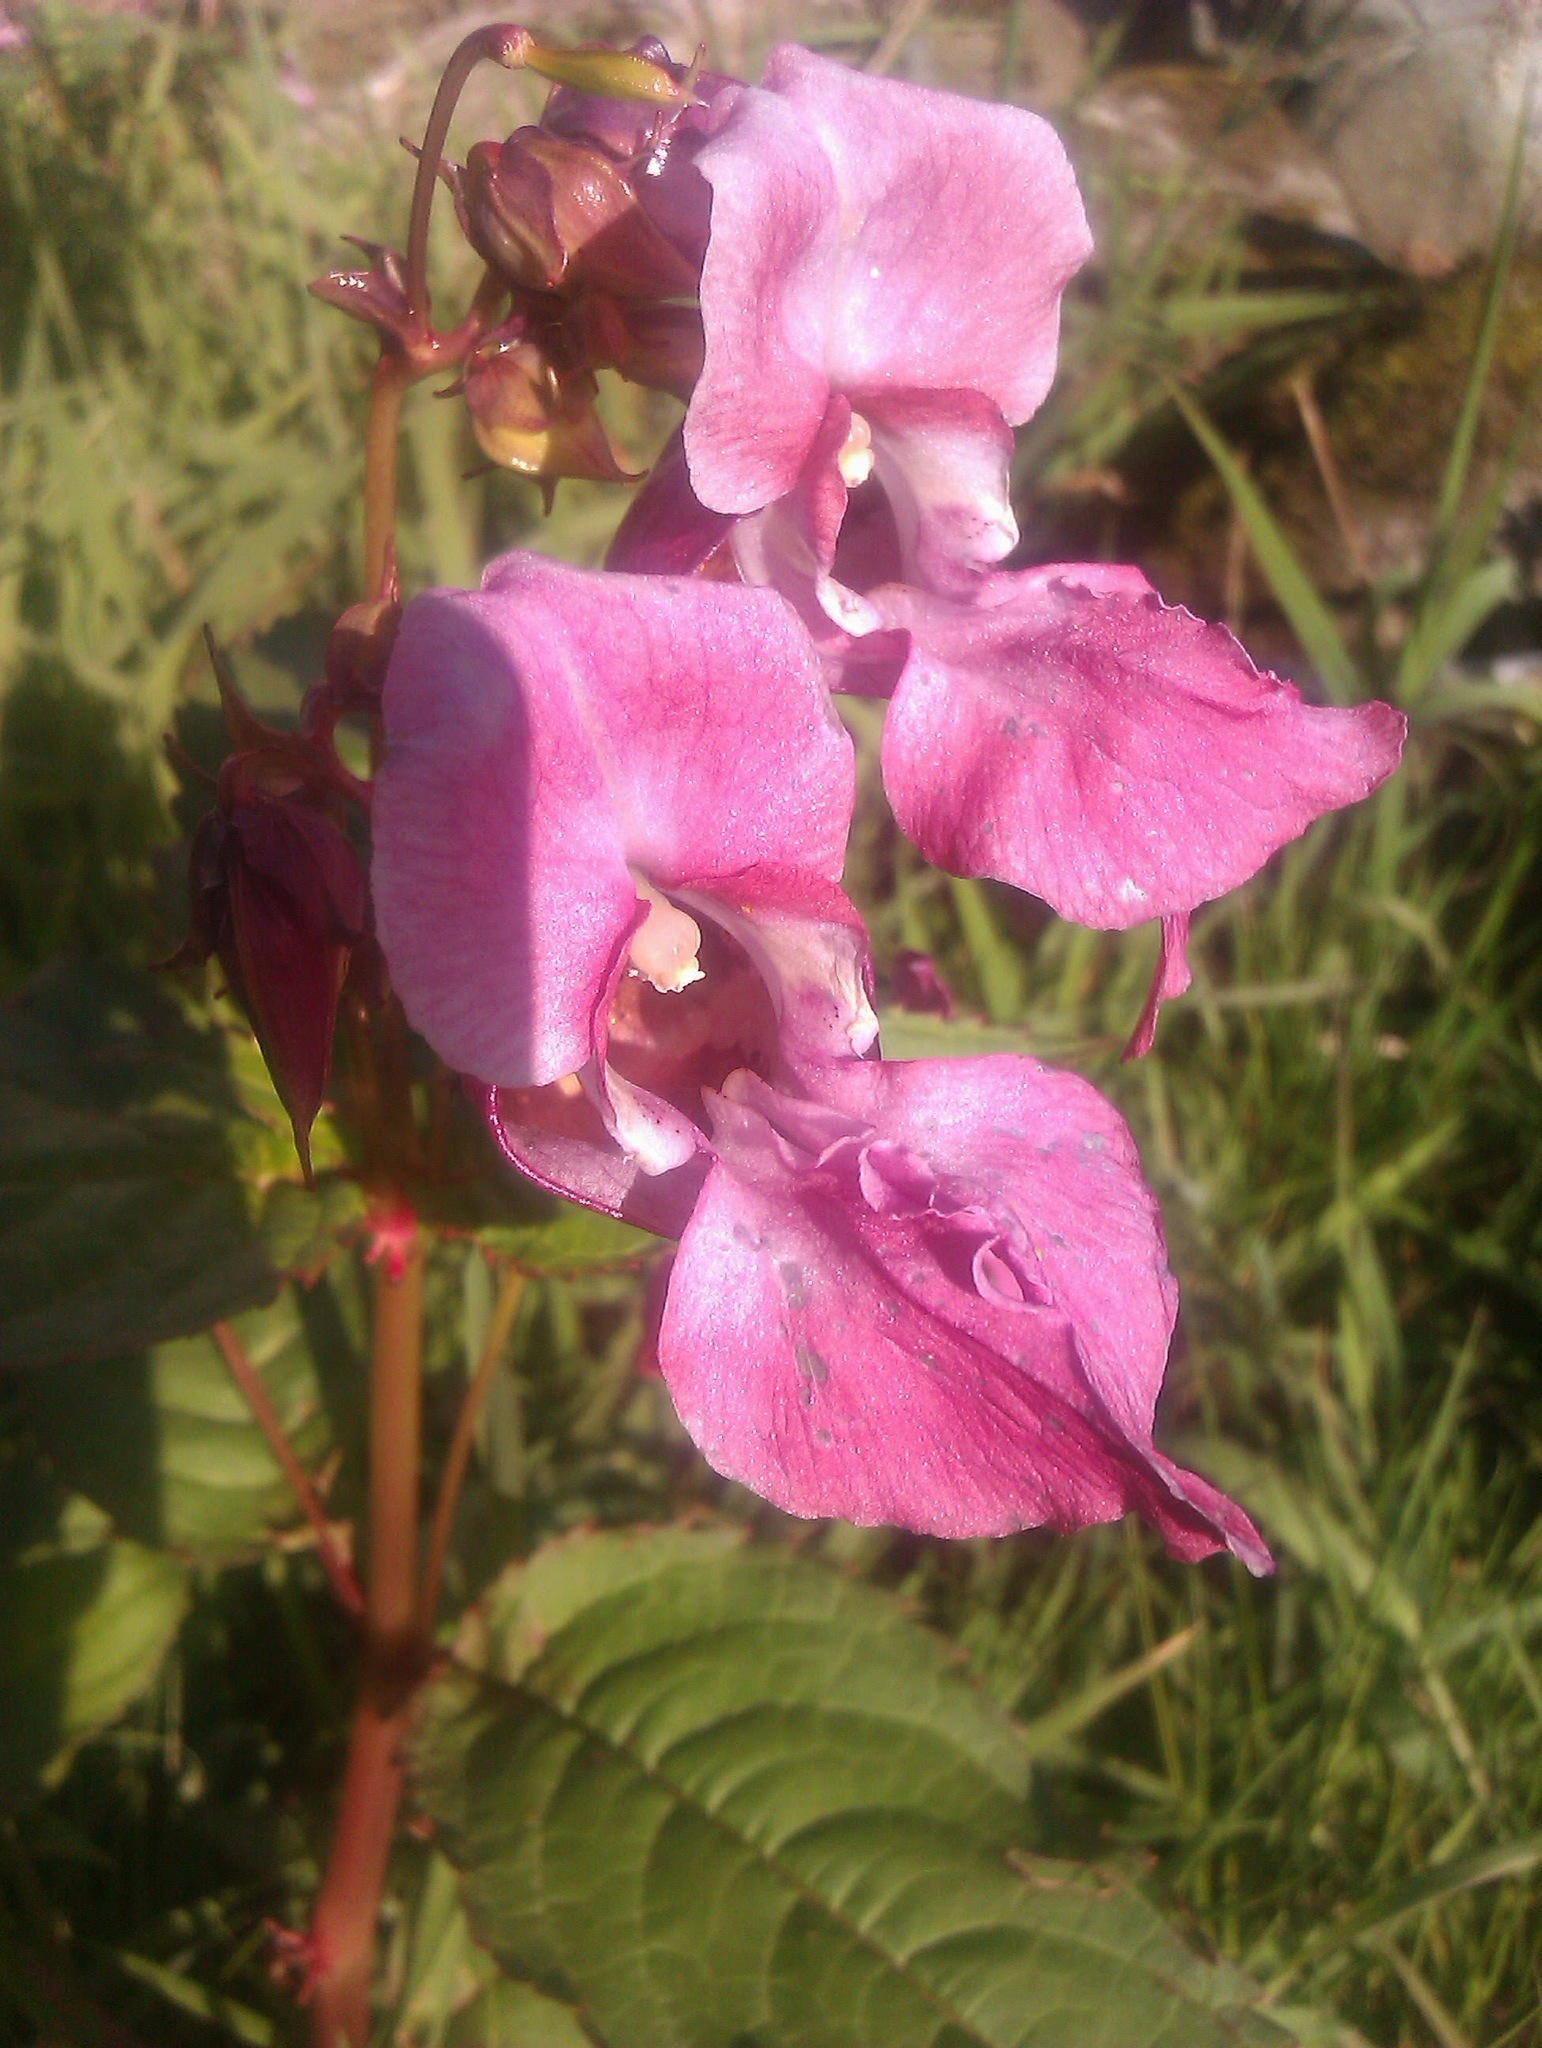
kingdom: Plantae
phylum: Tracheophyta
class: Magnoliopsida
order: Ericales
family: Balsaminaceae
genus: Impatiens
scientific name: Impatiens glandulifera
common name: Himalayan balsam
